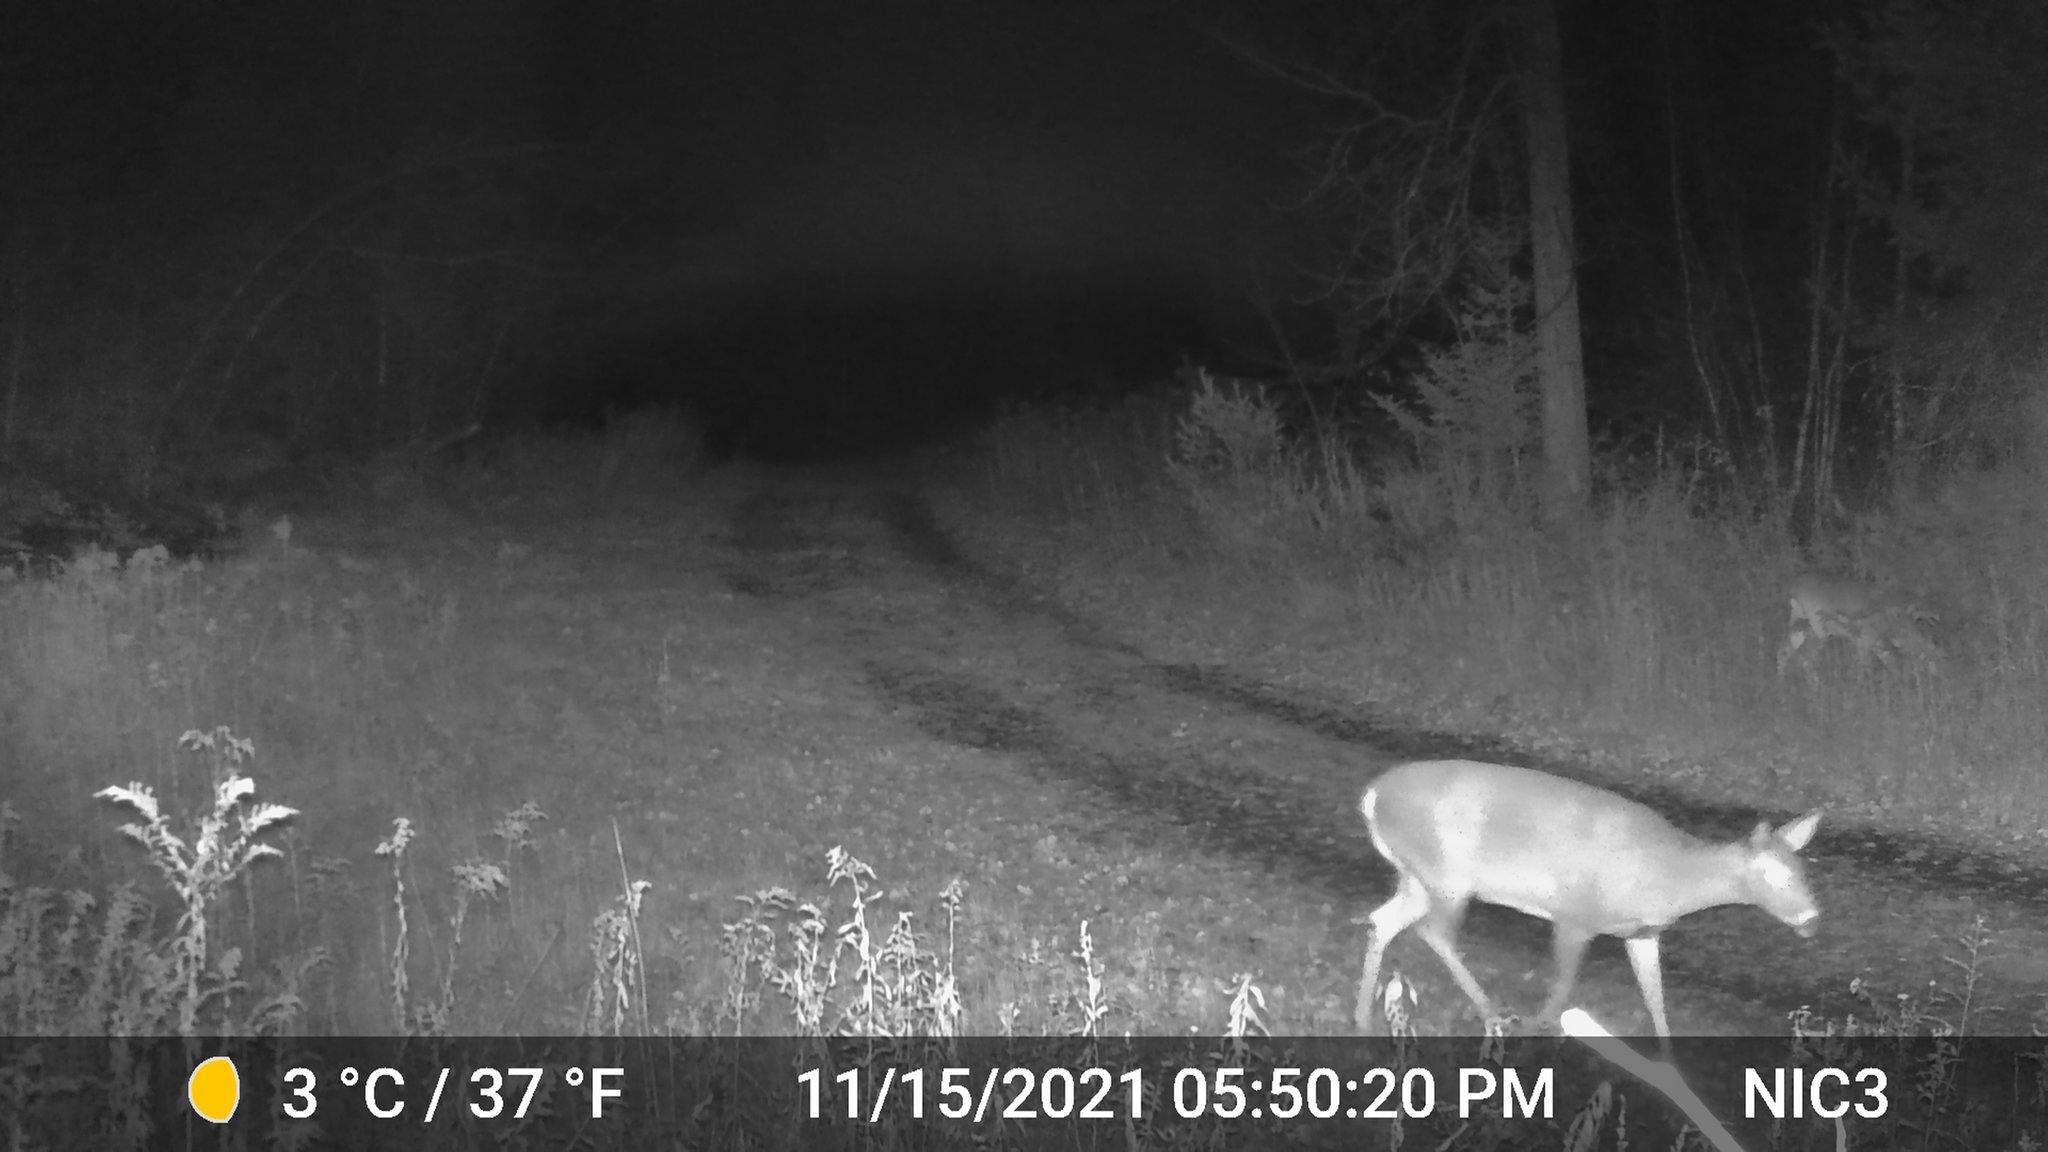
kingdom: Animalia
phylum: Chordata
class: Mammalia
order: Artiodactyla
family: Cervidae
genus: Odocoileus
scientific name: Odocoileus virginianus
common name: White-tailed deer
